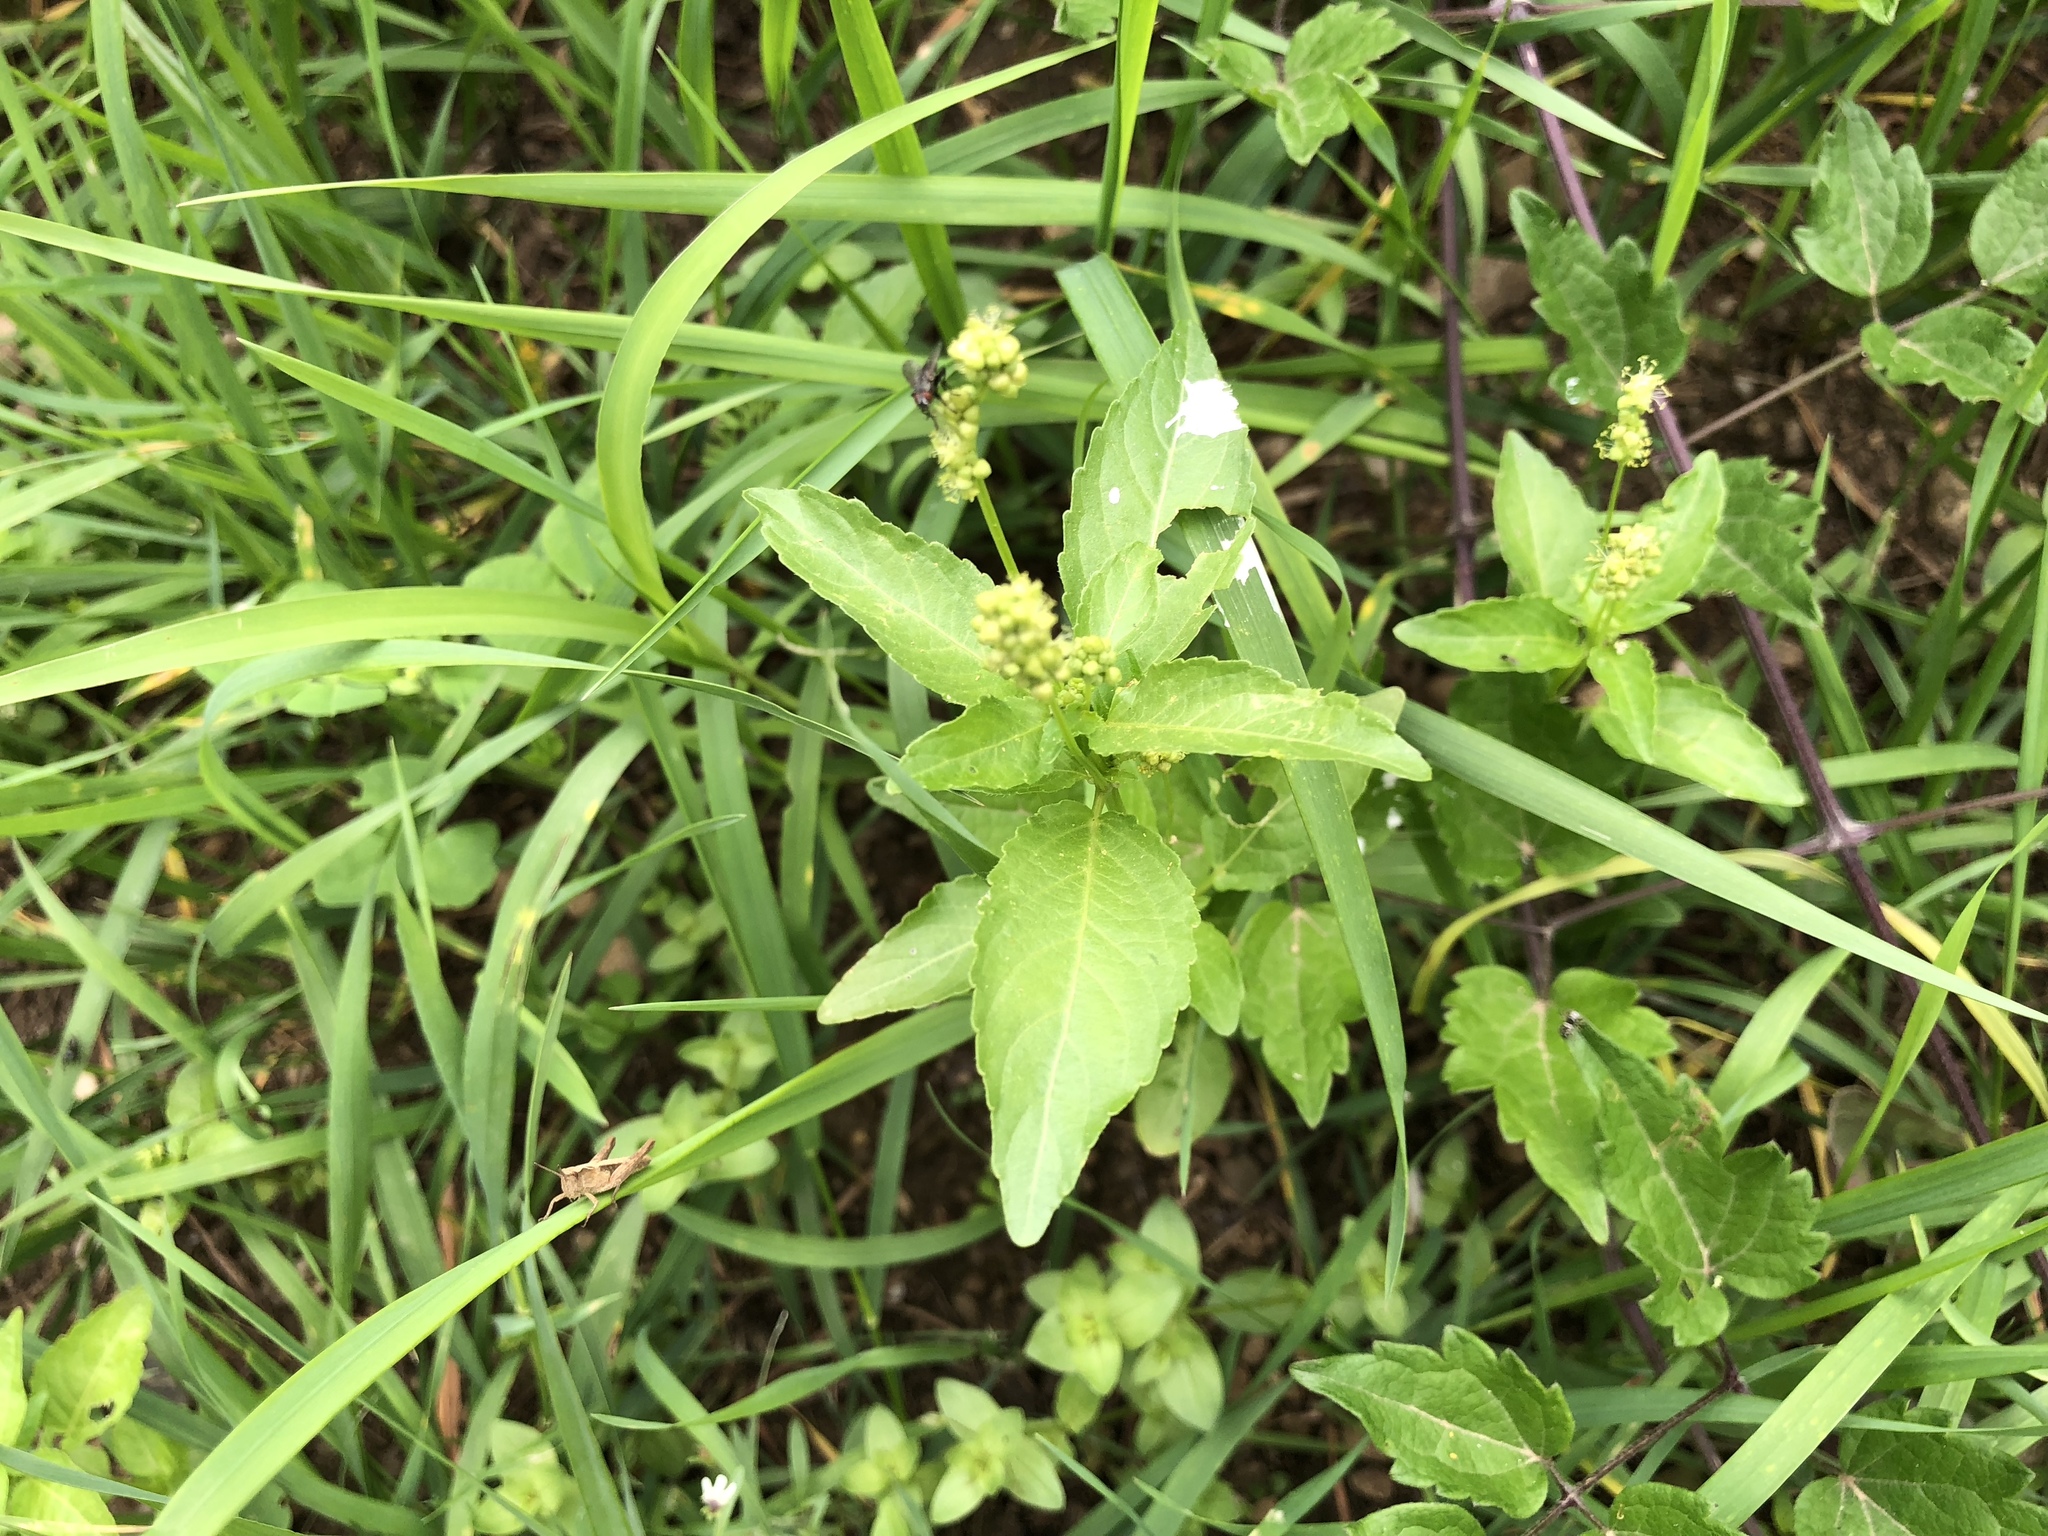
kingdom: Plantae
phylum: Tracheophyta
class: Magnoliopsida
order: Malpighiales
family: Euphorbiaceae
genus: Mercurialis
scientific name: Mercurialis annua
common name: Annual mercury
